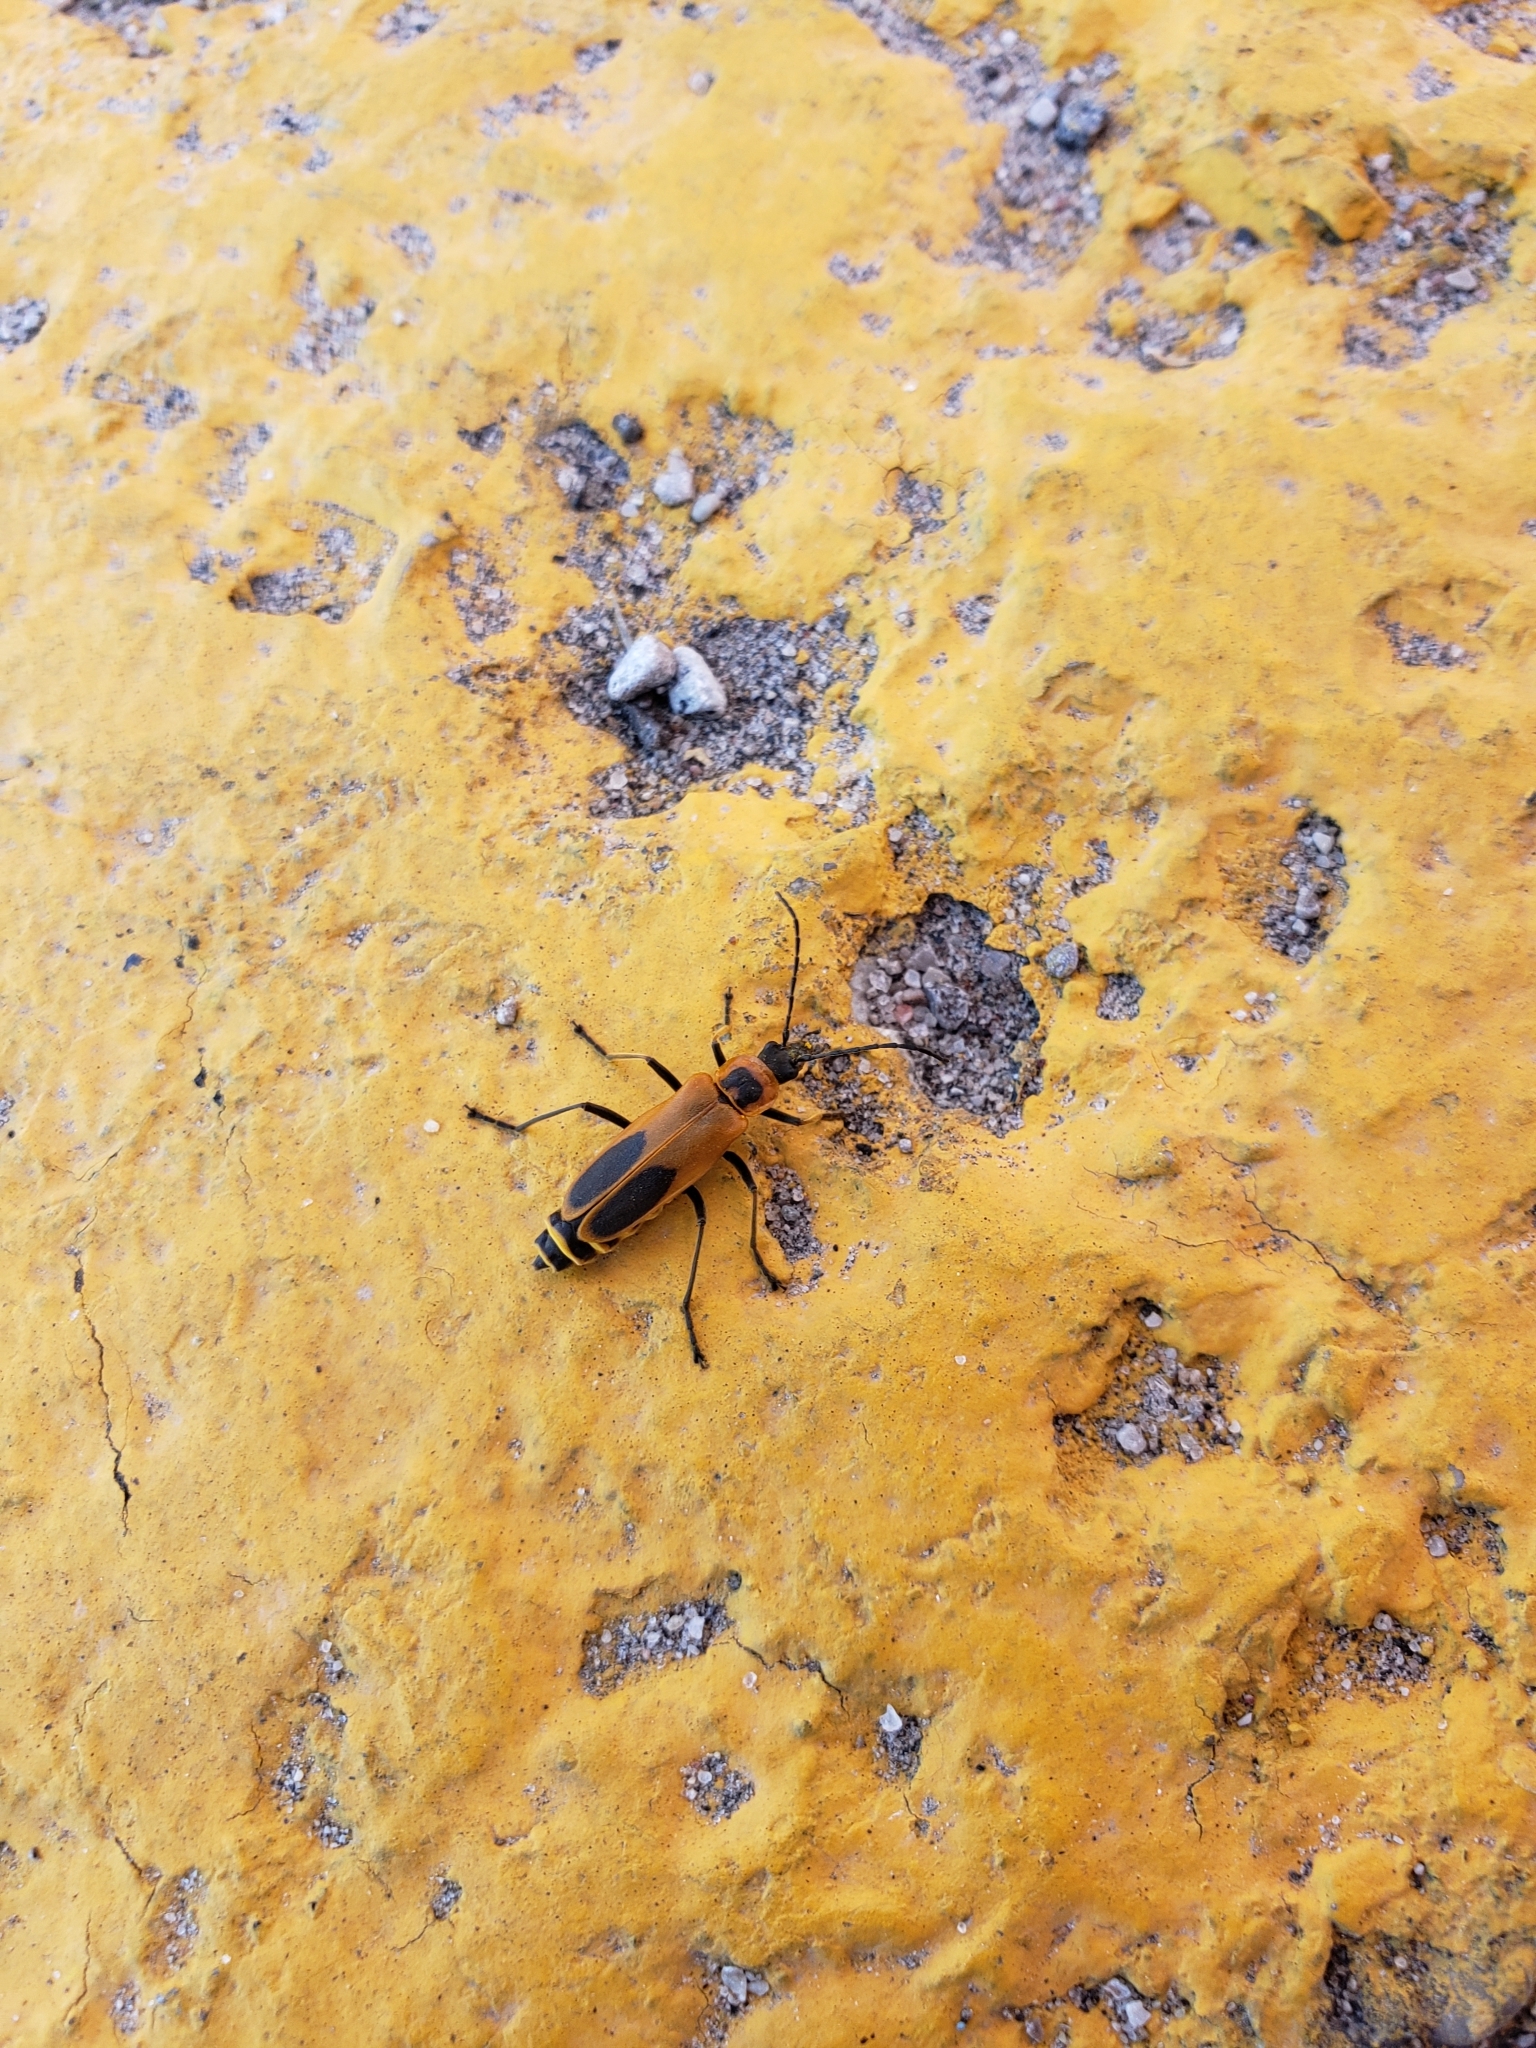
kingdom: Animalia
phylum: Arthropoda
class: Insecta
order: Coleoptera
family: Cantharidae
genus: Chauliognathus
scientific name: Chauliognathus pensylvanicus
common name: Goldenrod soldier beetle
